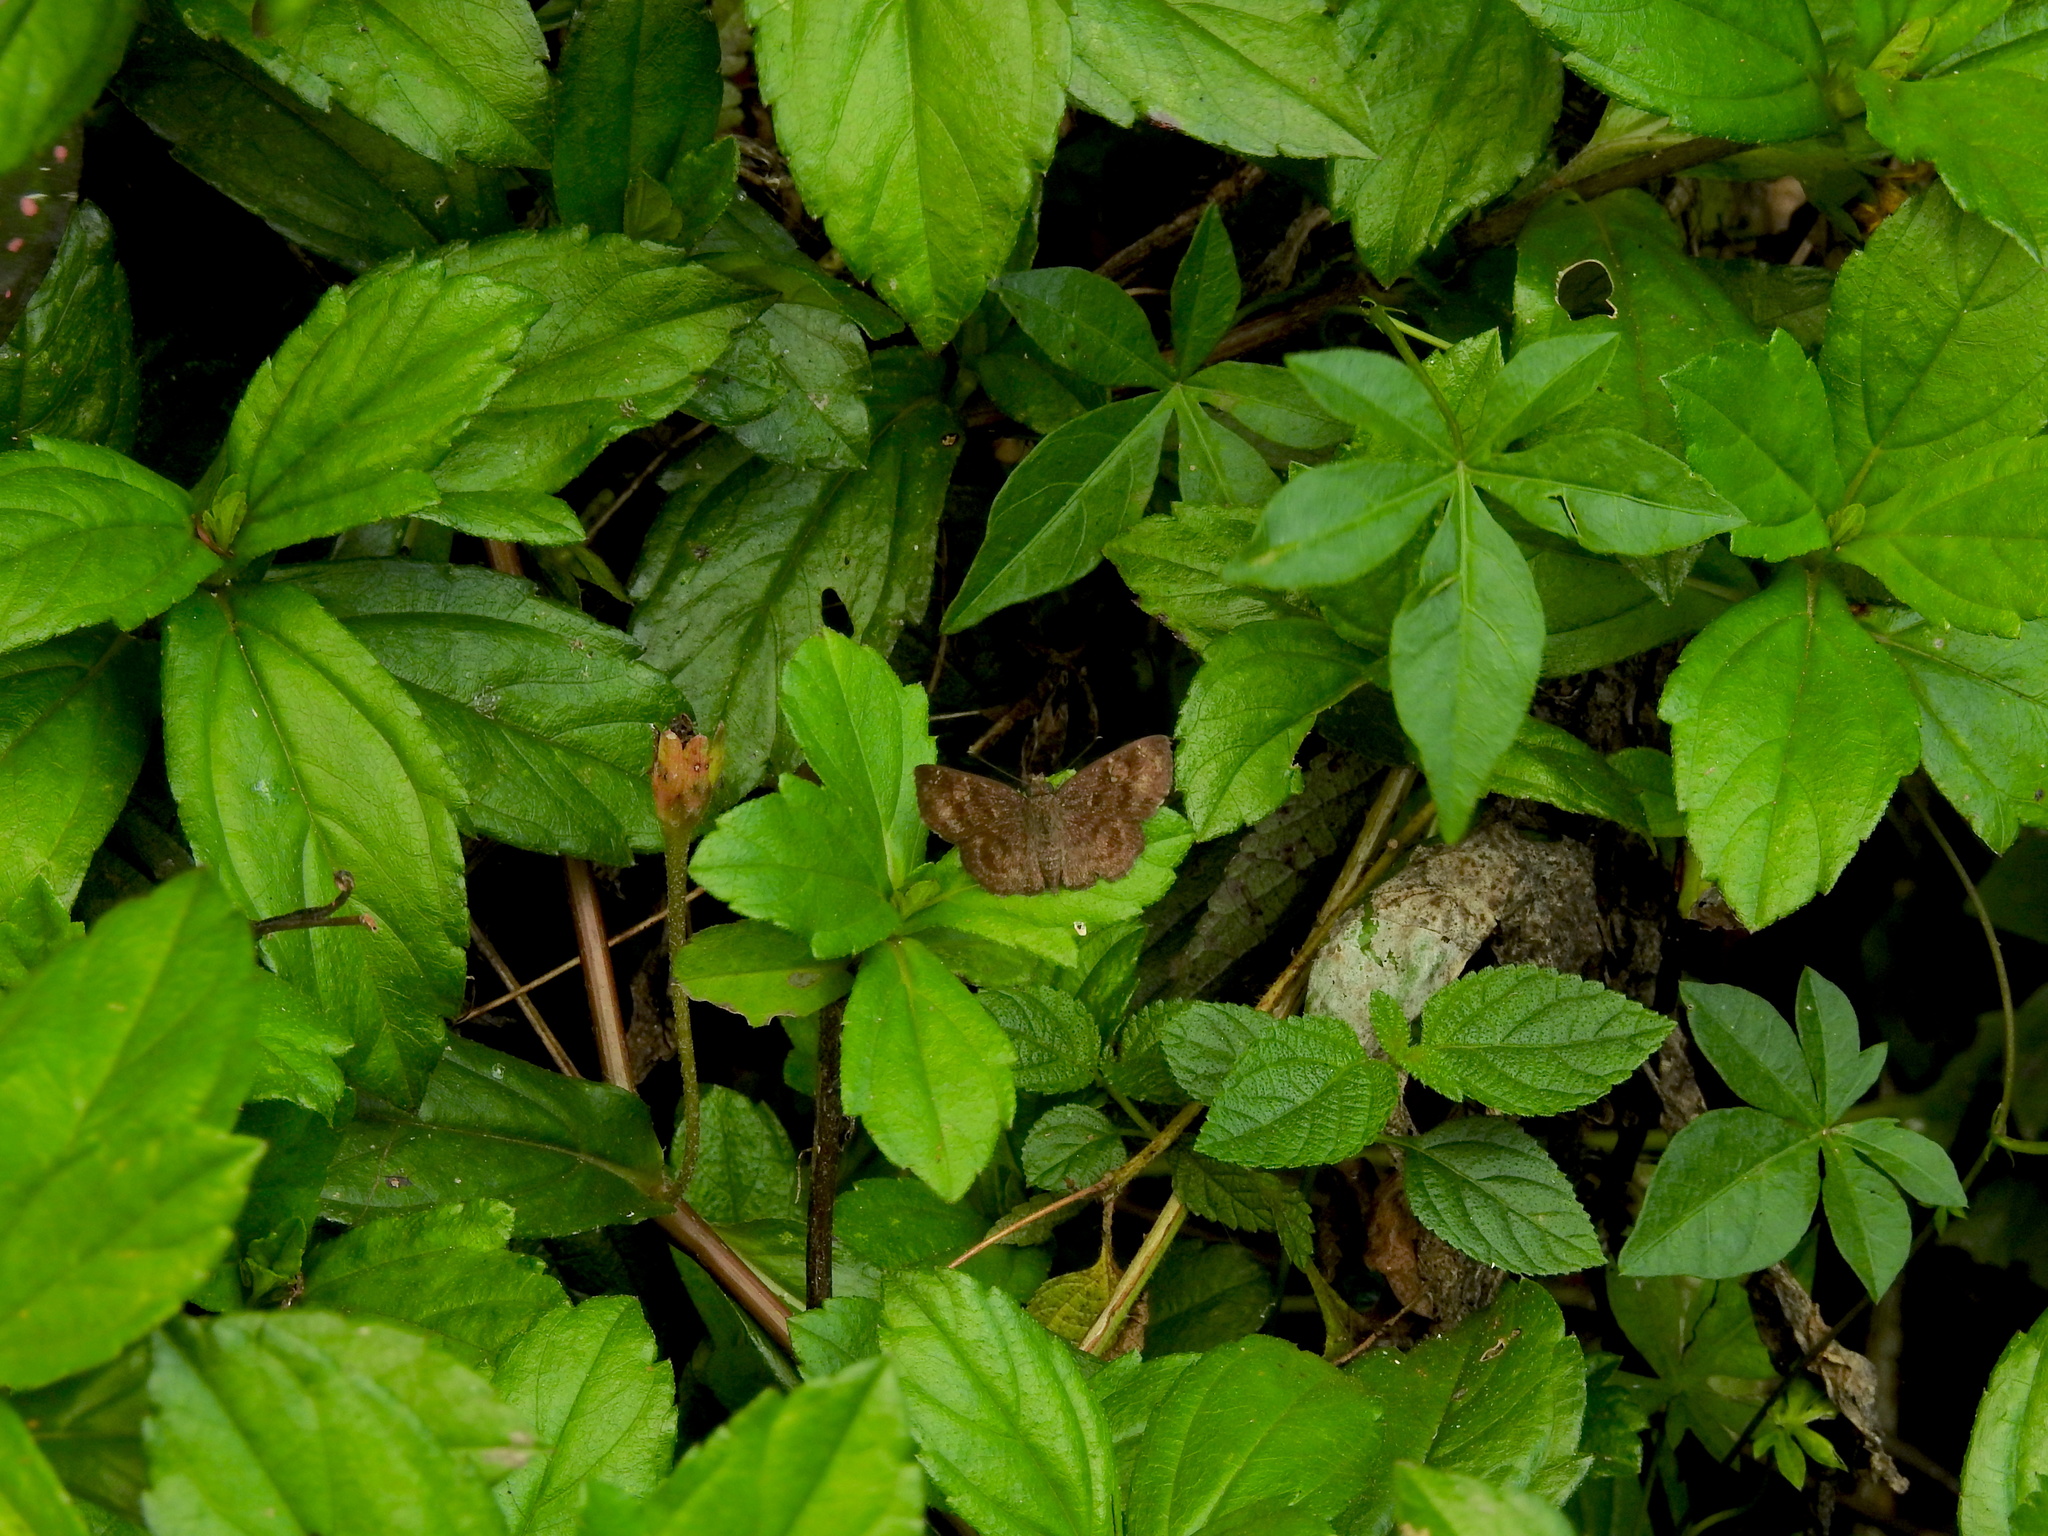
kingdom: Animalia
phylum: Arthropoda
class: Insecta
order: Lepidoptera
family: Hesperiidae
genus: Sarangesa
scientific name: Sarangesa dasahara
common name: Common small flat
